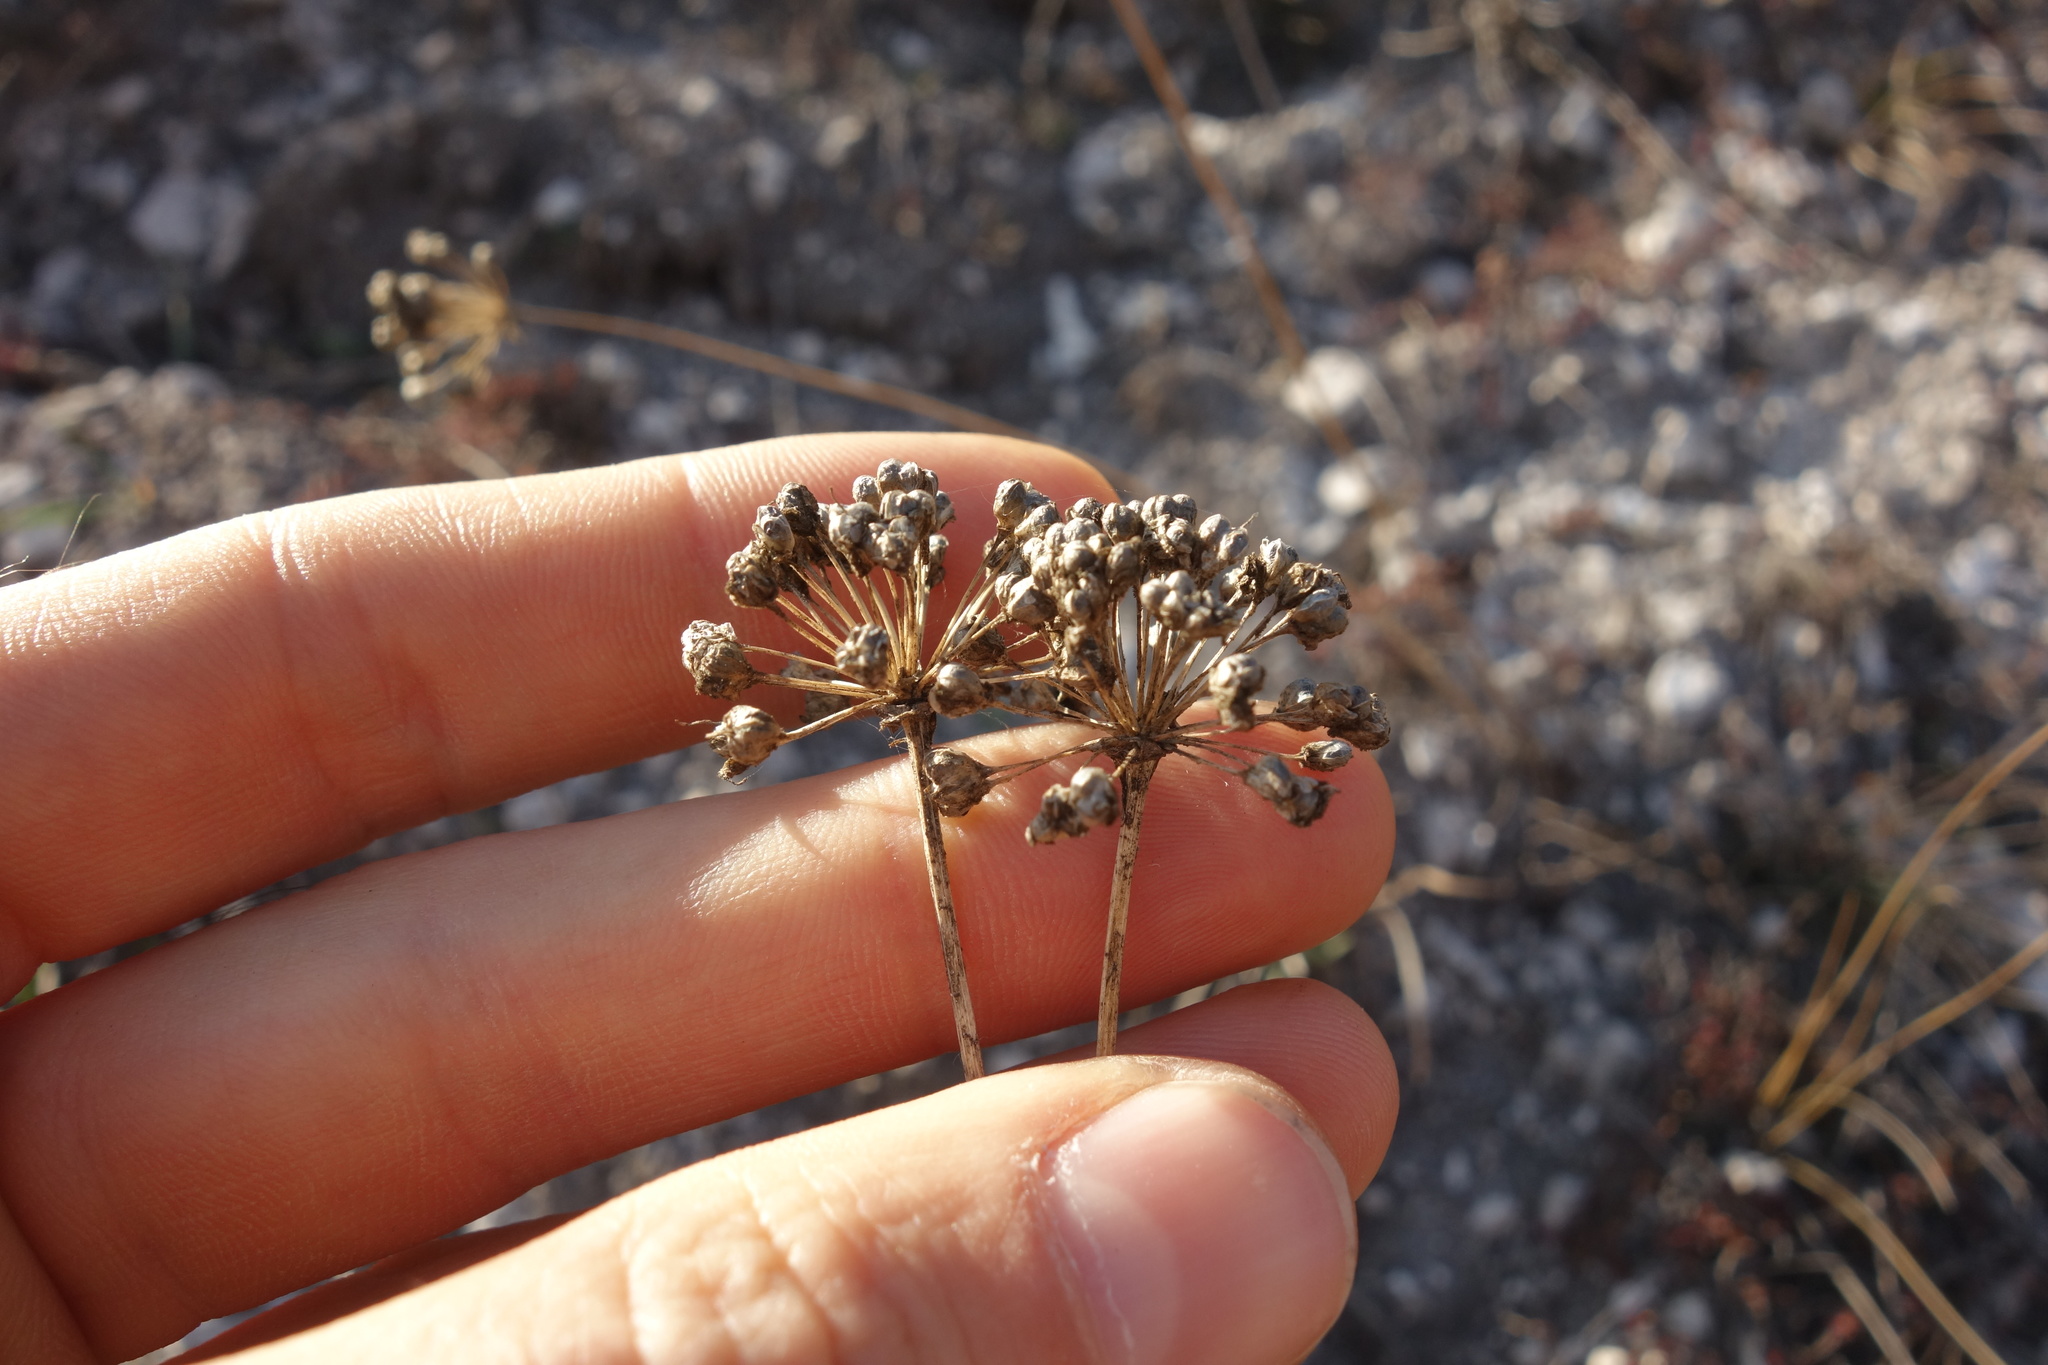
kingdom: Plantae
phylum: Tracheophyta
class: Liliopsida
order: Asparagales
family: Amaryllidaceae
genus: Allium
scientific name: Allium flavescens
